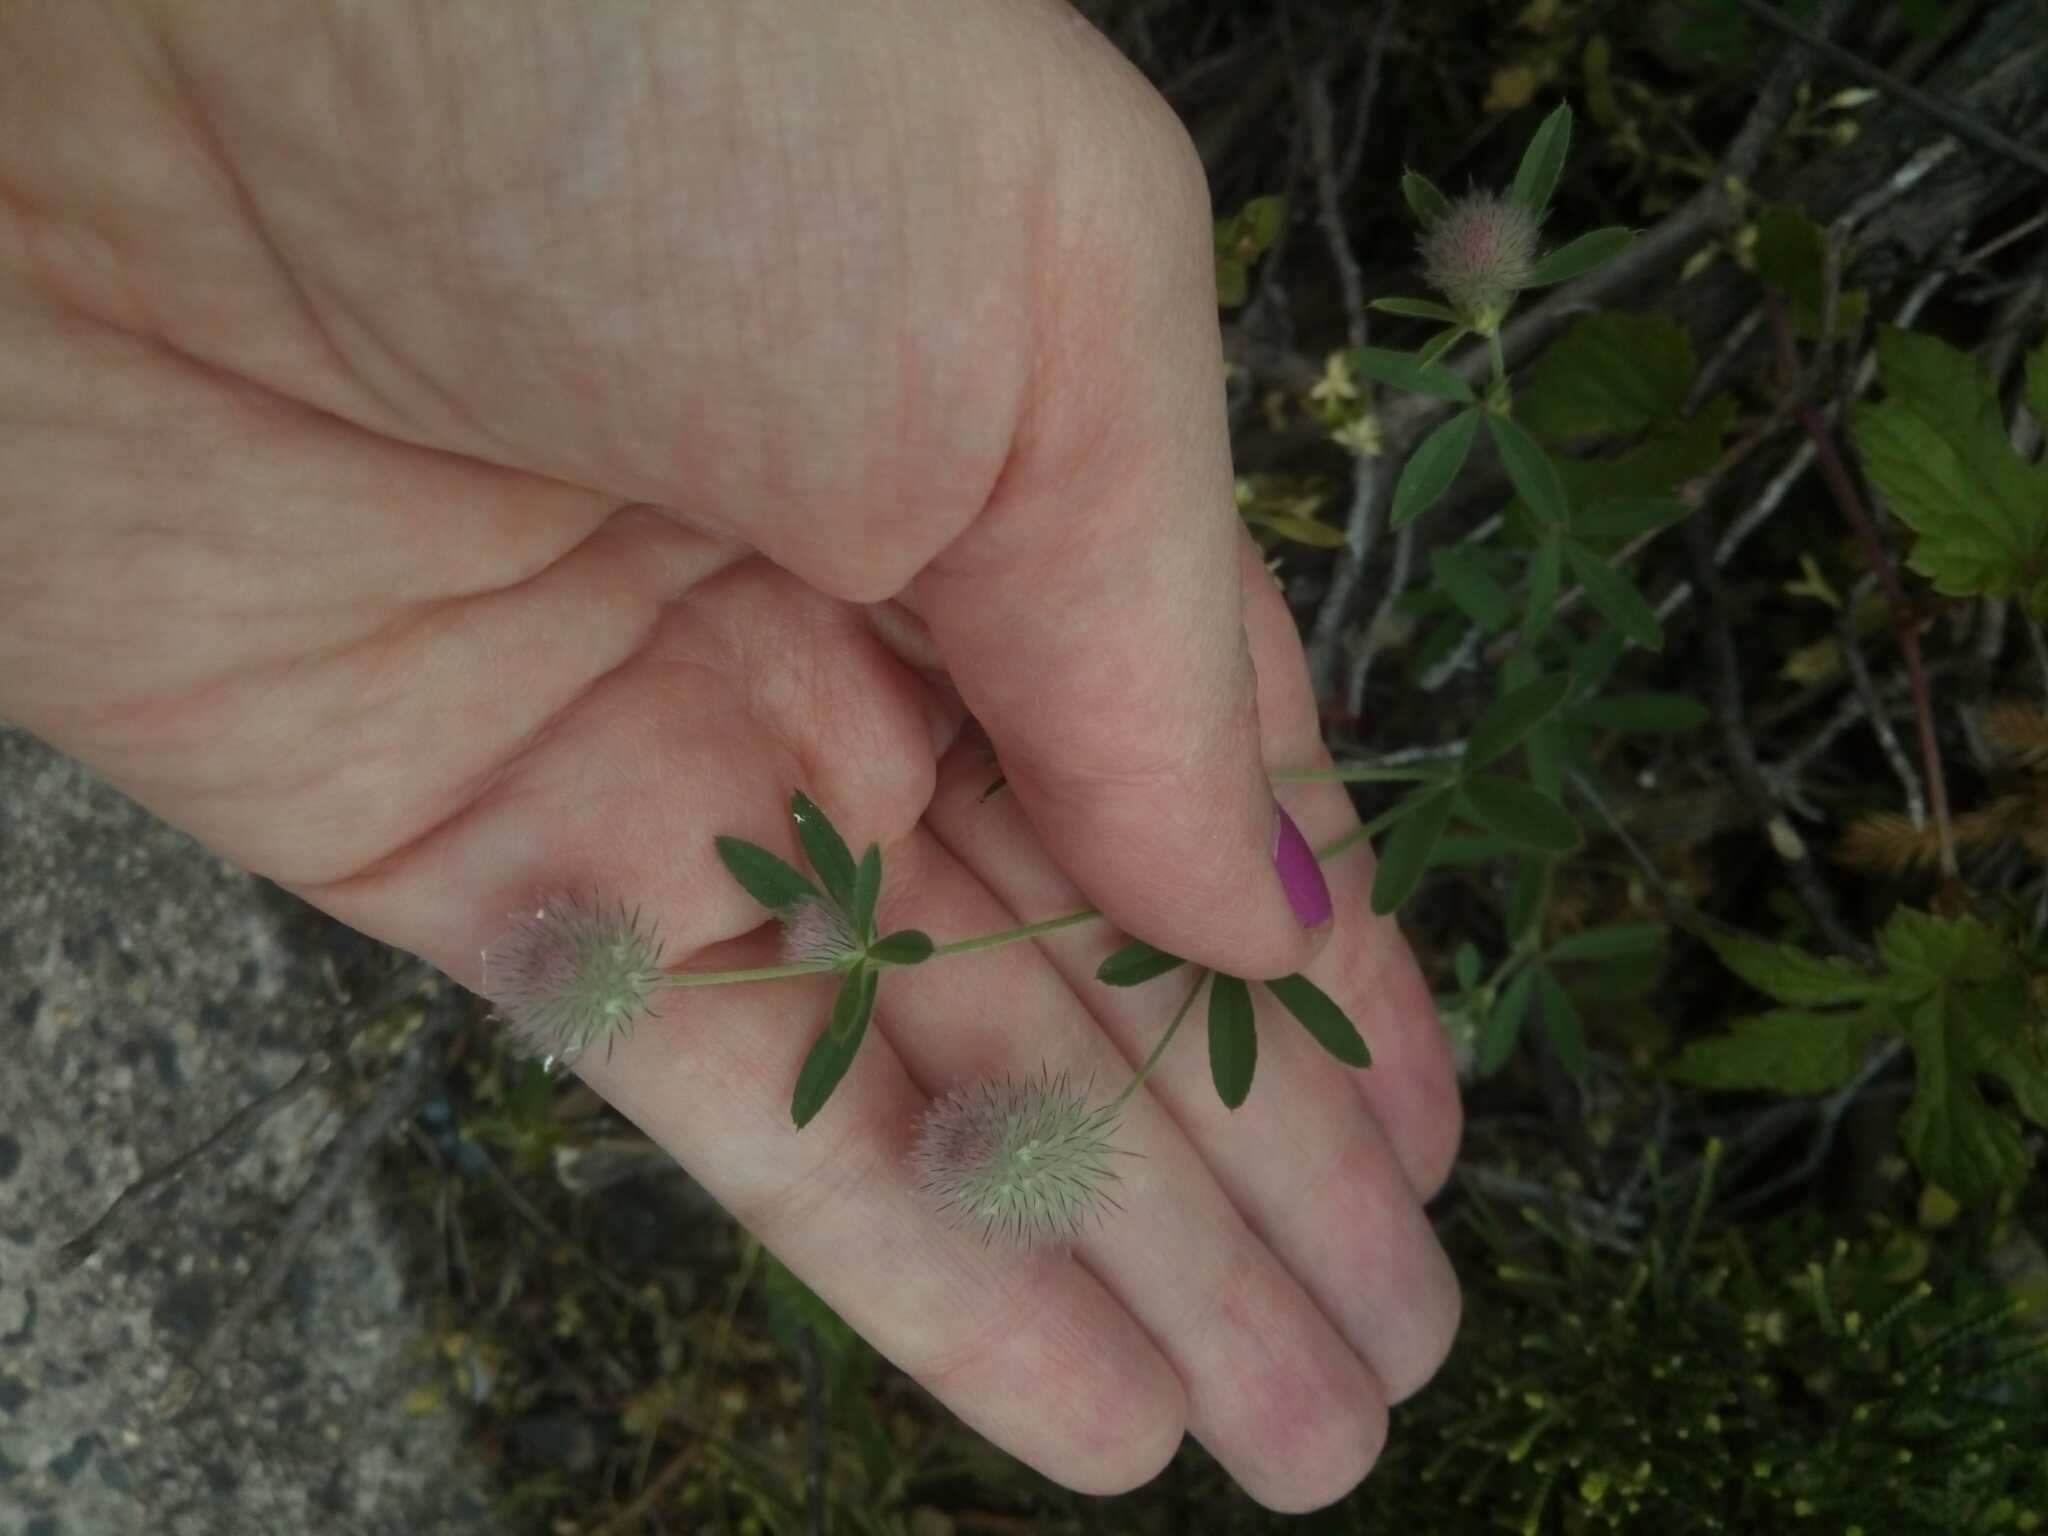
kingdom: Plantae
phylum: Tracheophyta
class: Magnoliopsida
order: Fabales
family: Fabaceae
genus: Trifolium
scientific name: Trifolium arvense
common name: Hare's-foot clover
